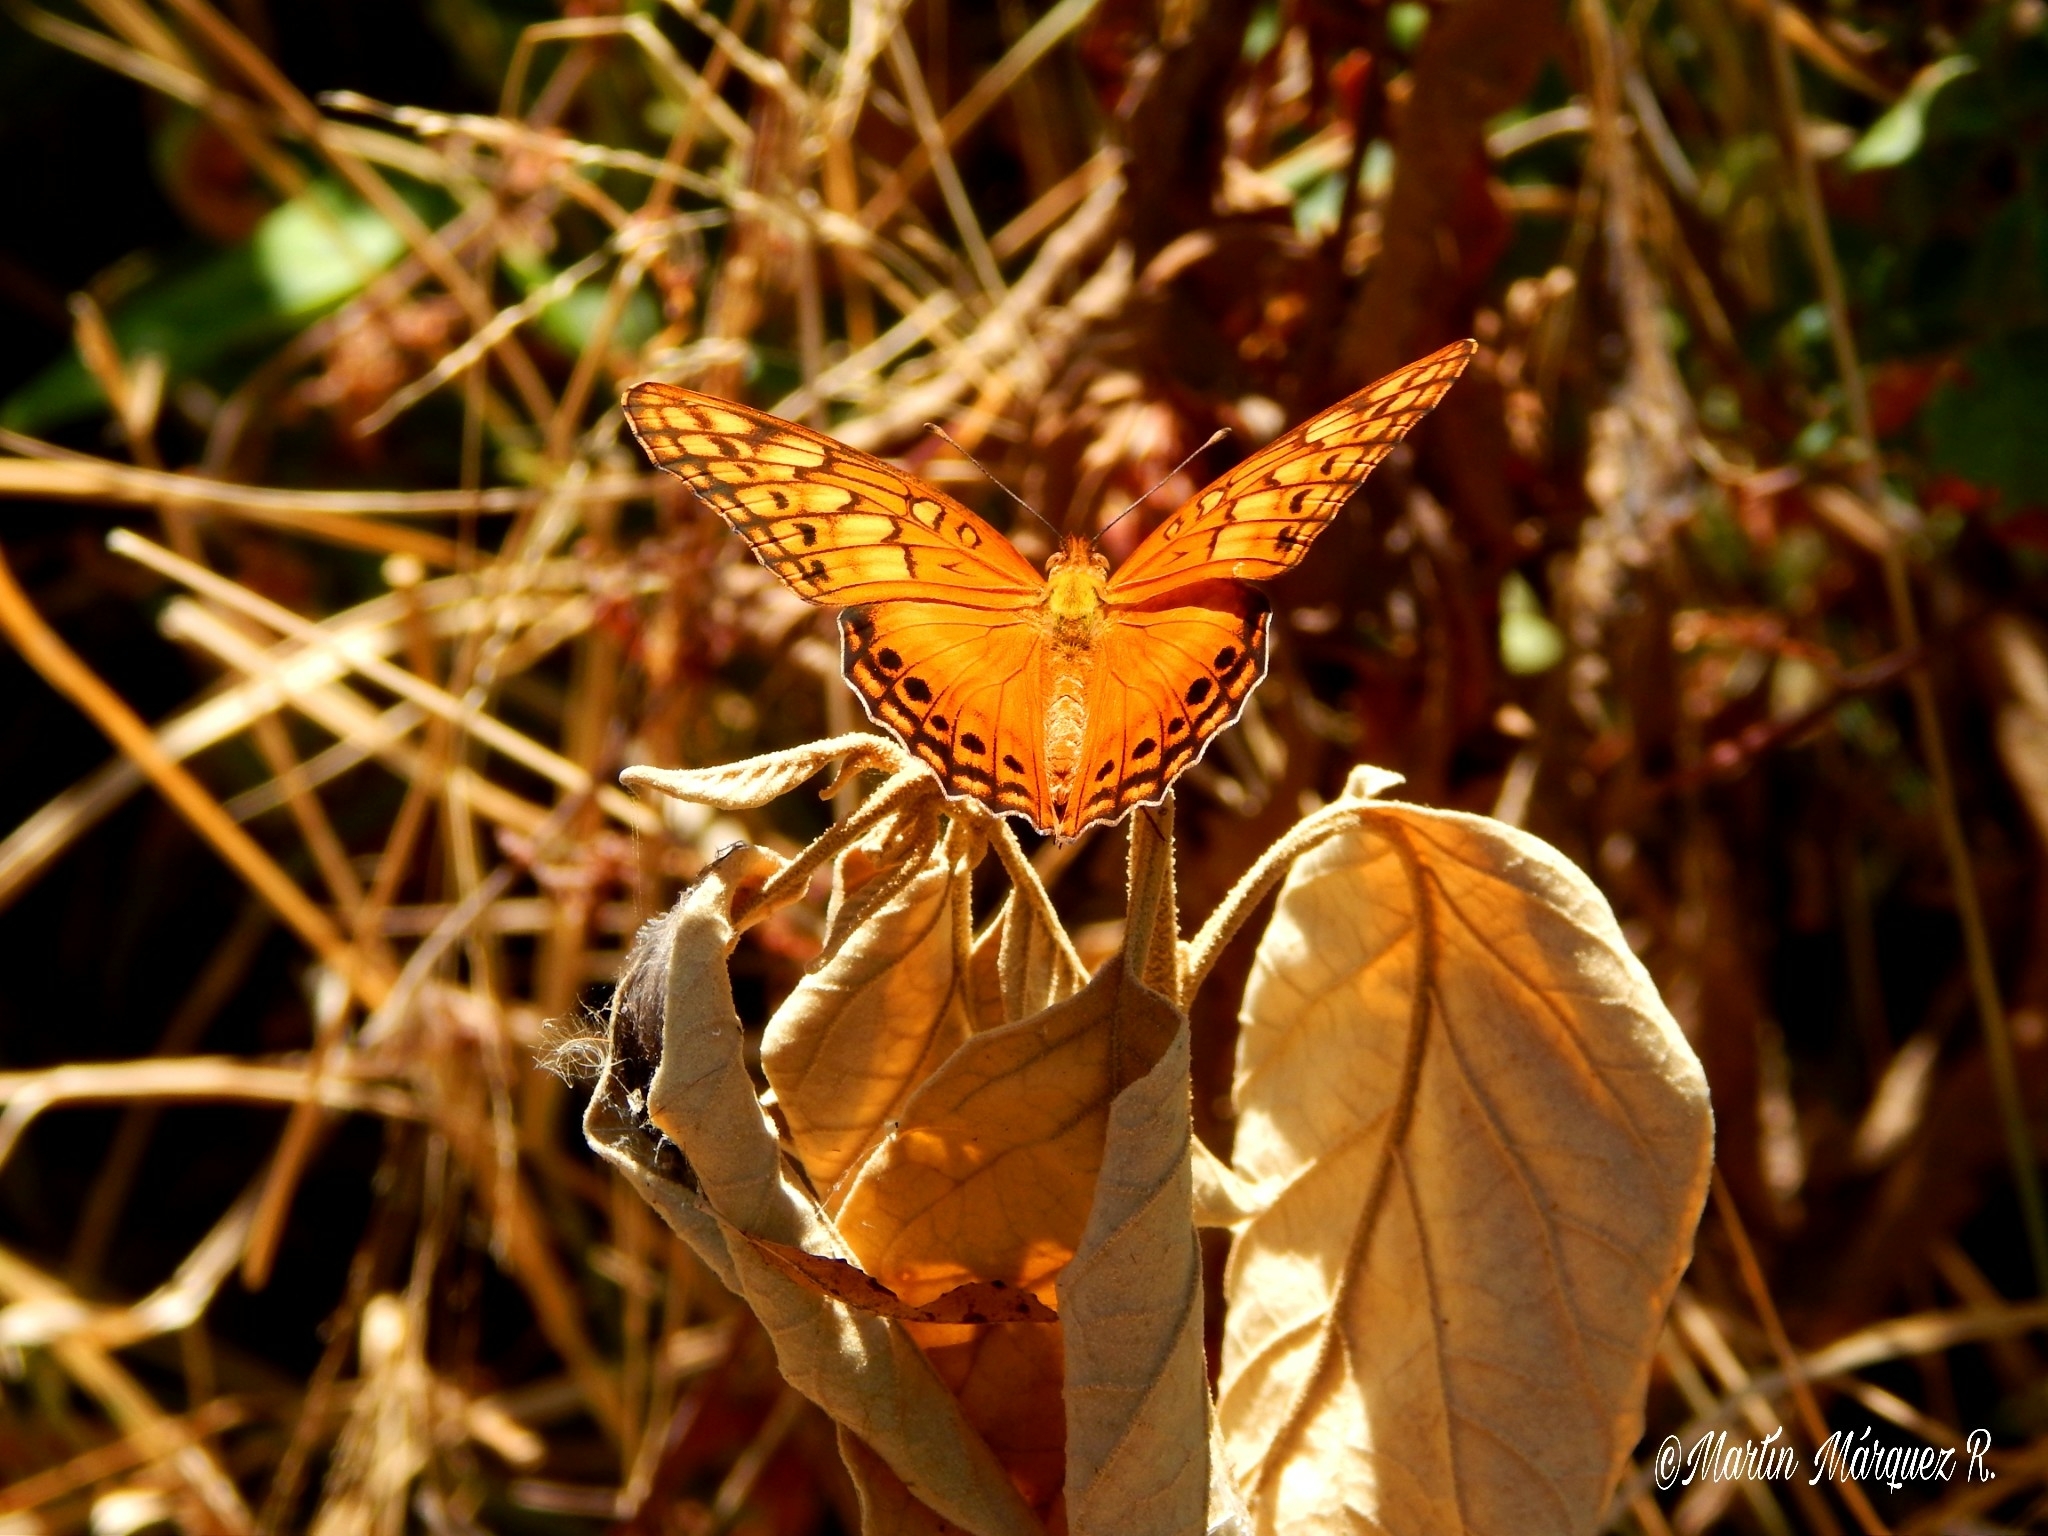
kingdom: Animalia
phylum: Arthropoda
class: Insecta
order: Lepidoptera
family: Nymphalidae
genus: Euptoieta
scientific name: Euptoieta hegesia
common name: Mexican fritillary
